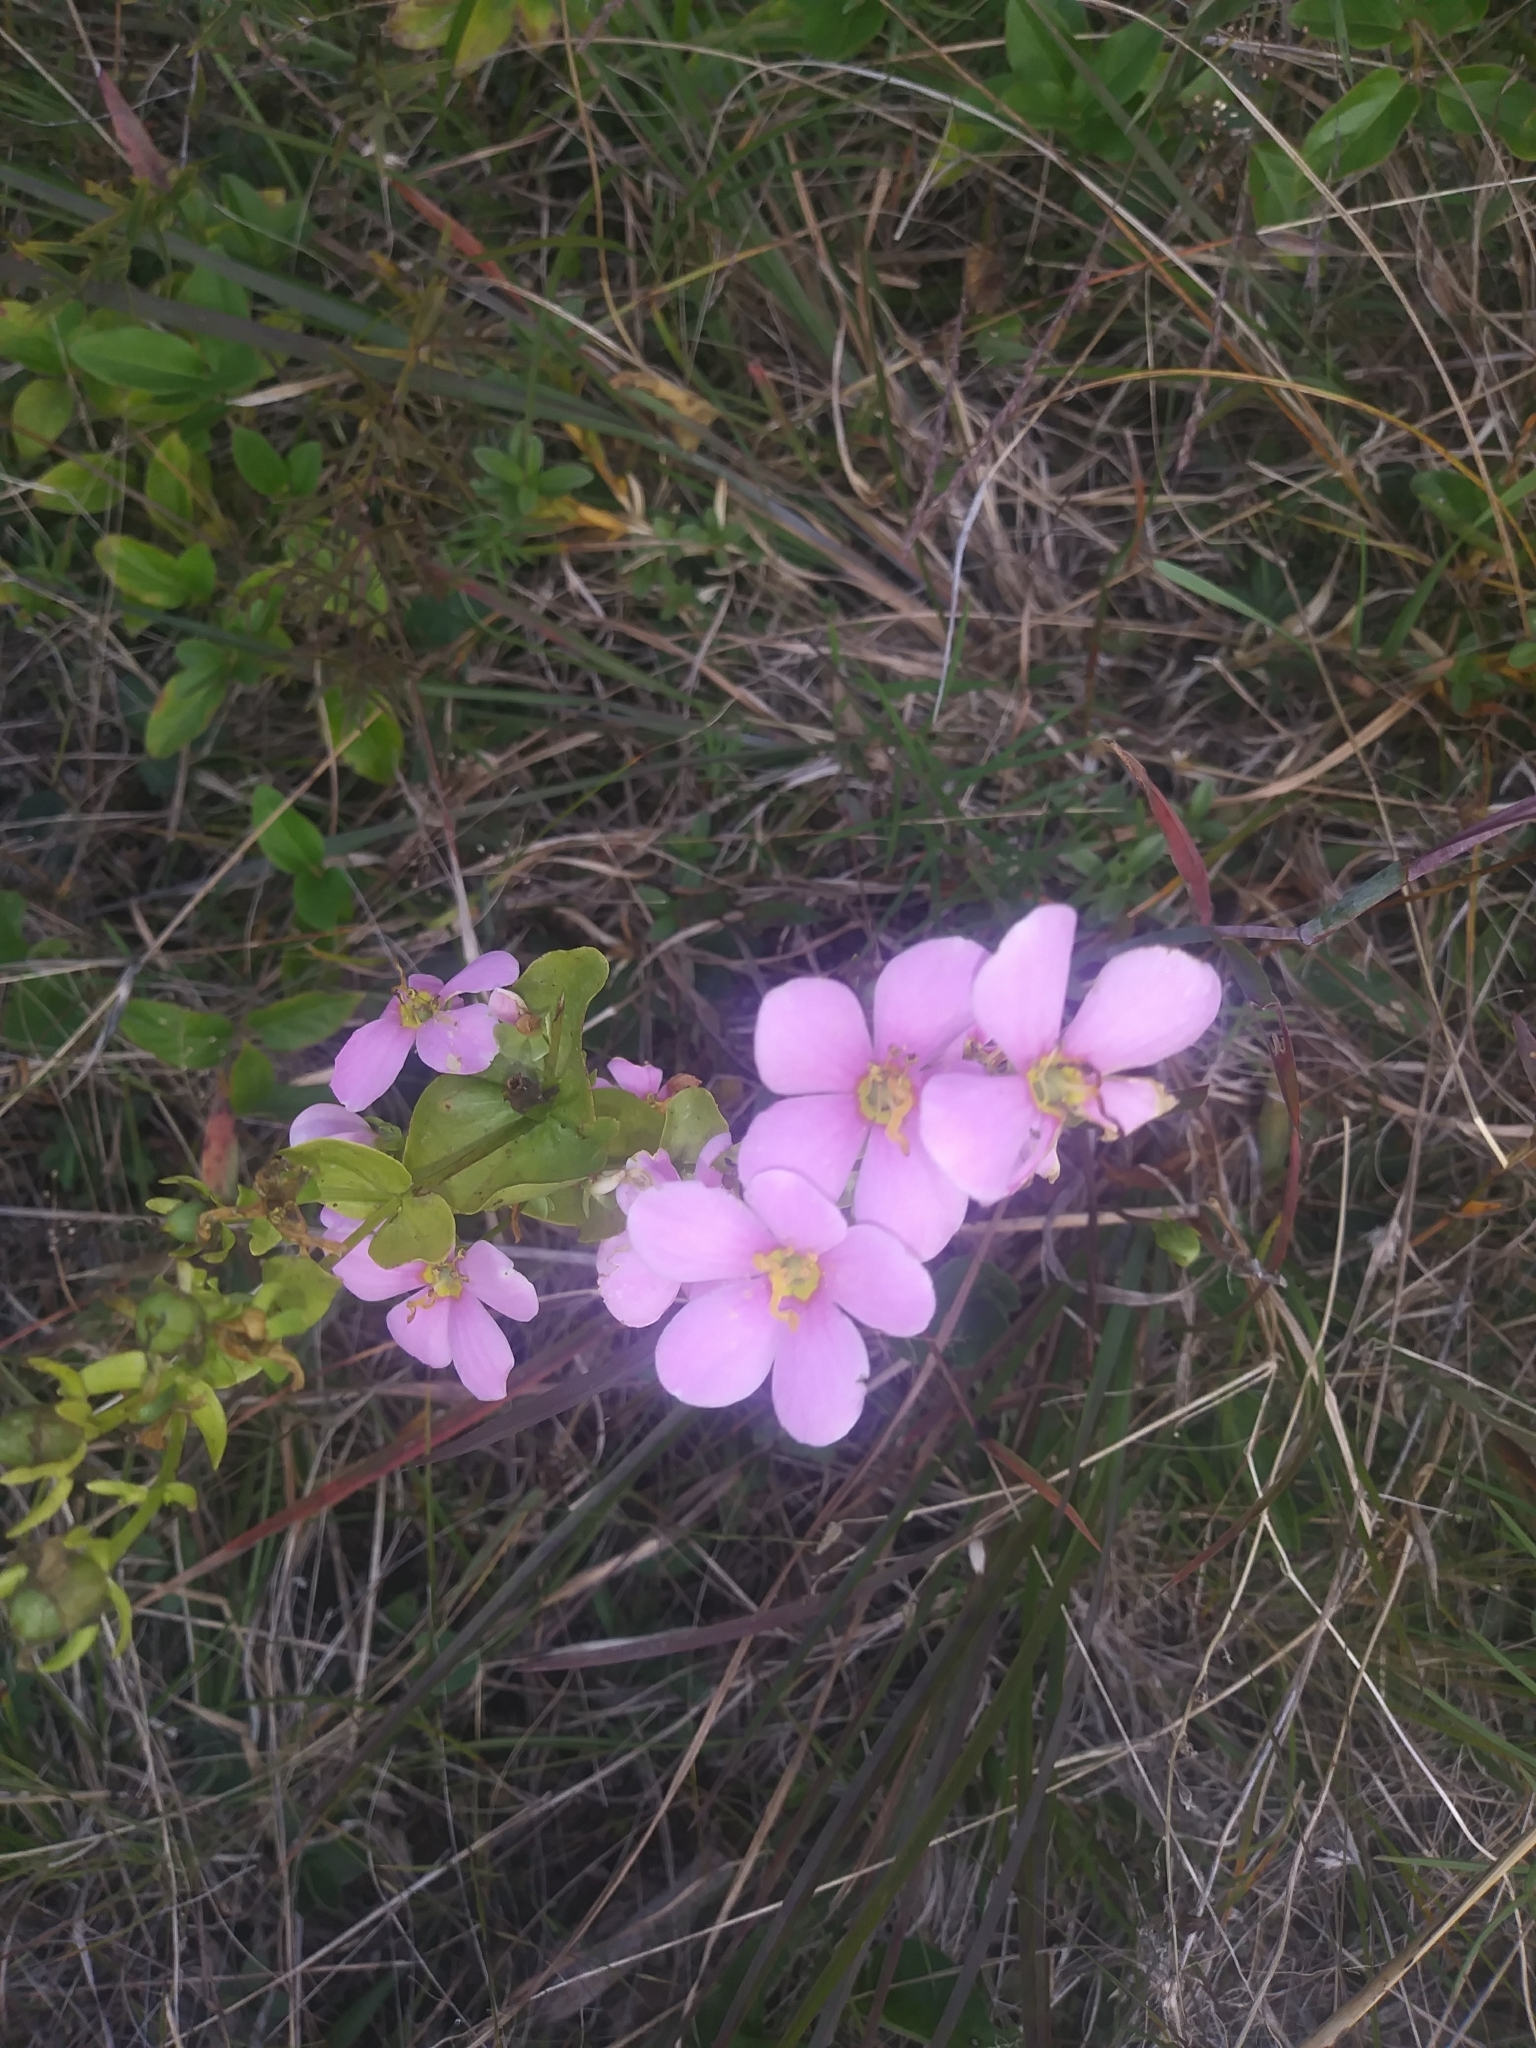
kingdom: Plantae
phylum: Tracheophyta
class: Magnoliopsida
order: Gentianales
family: Gentianaceae
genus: Sabatia
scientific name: Sabatia angularis
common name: Rose-pink
